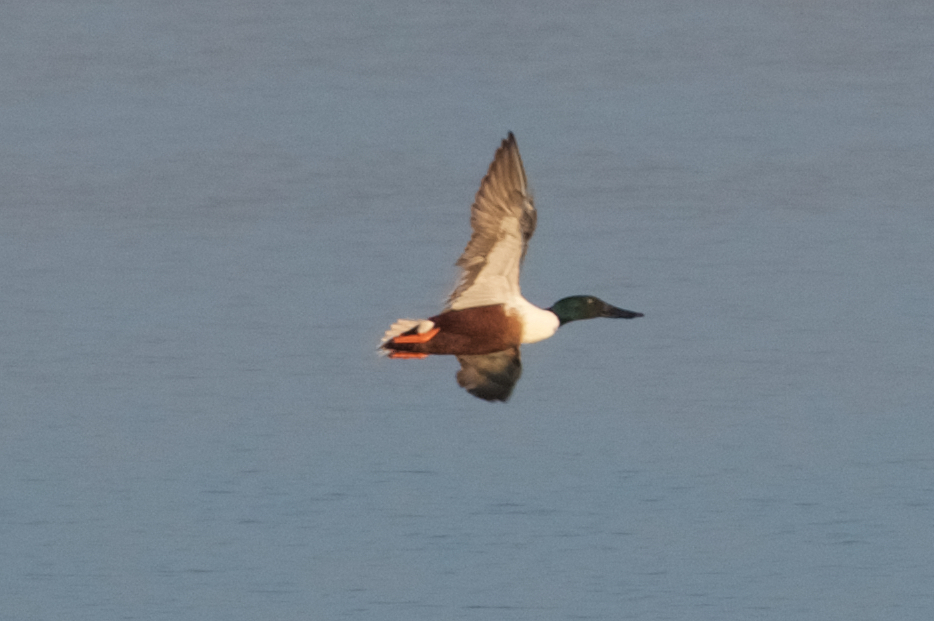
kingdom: Animalia
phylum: Chordata
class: Aves
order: Anseriformes
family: Anatidae
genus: Spatula
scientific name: Spatula clypeata
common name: Northern shoveler
